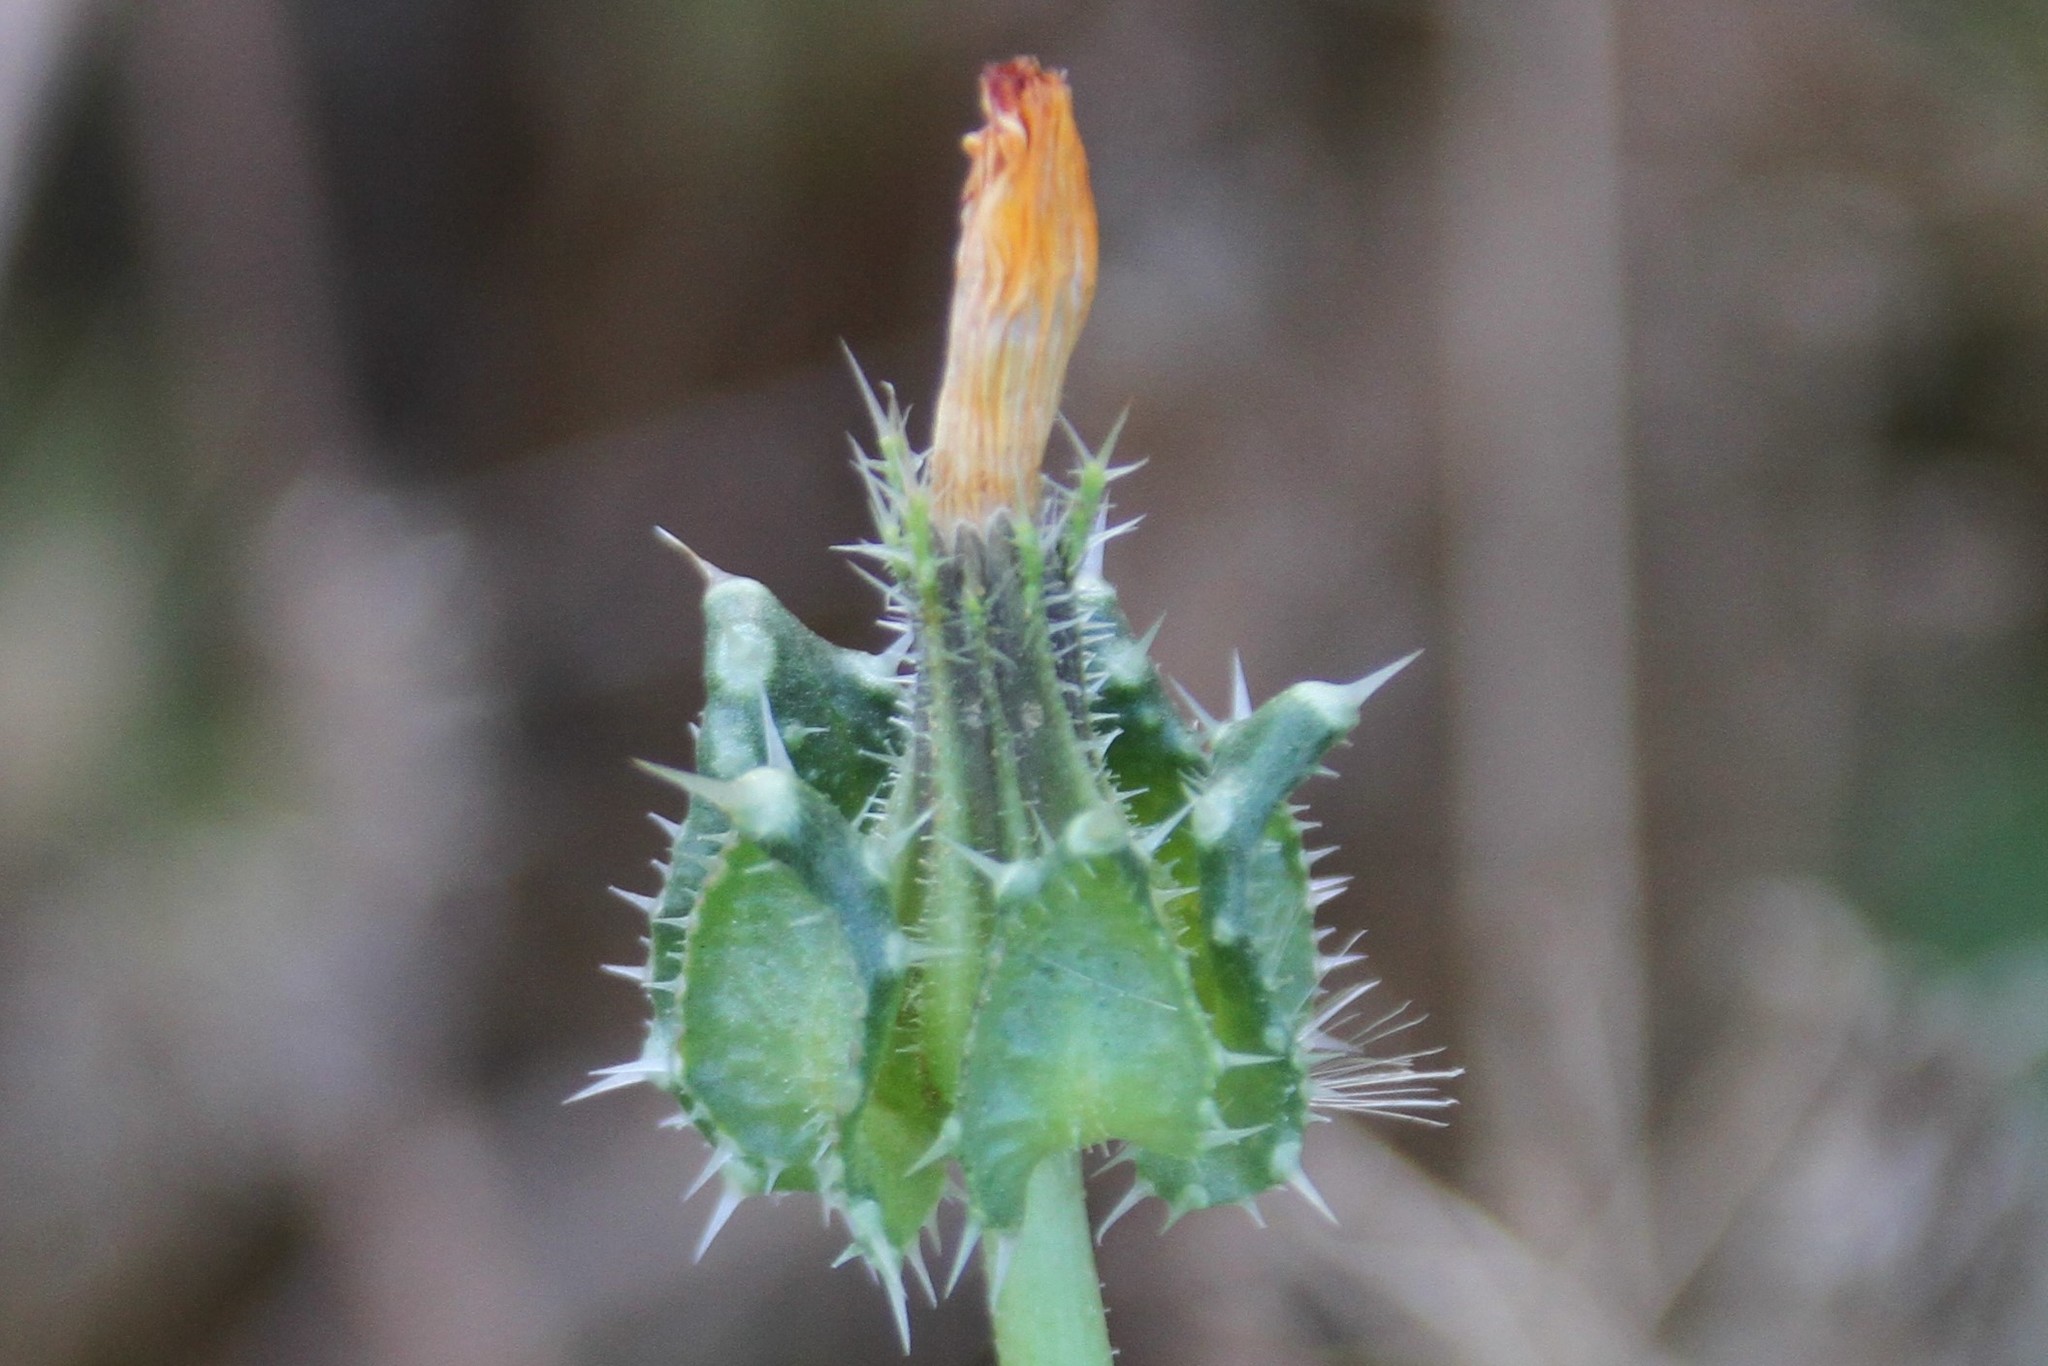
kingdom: Plantae
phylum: Tracheophyta
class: Magnoliopsida
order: Asterales
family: Asteraceae
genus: Helminthotheca
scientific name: Helminthotheca echioides
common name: Ox-tongue
